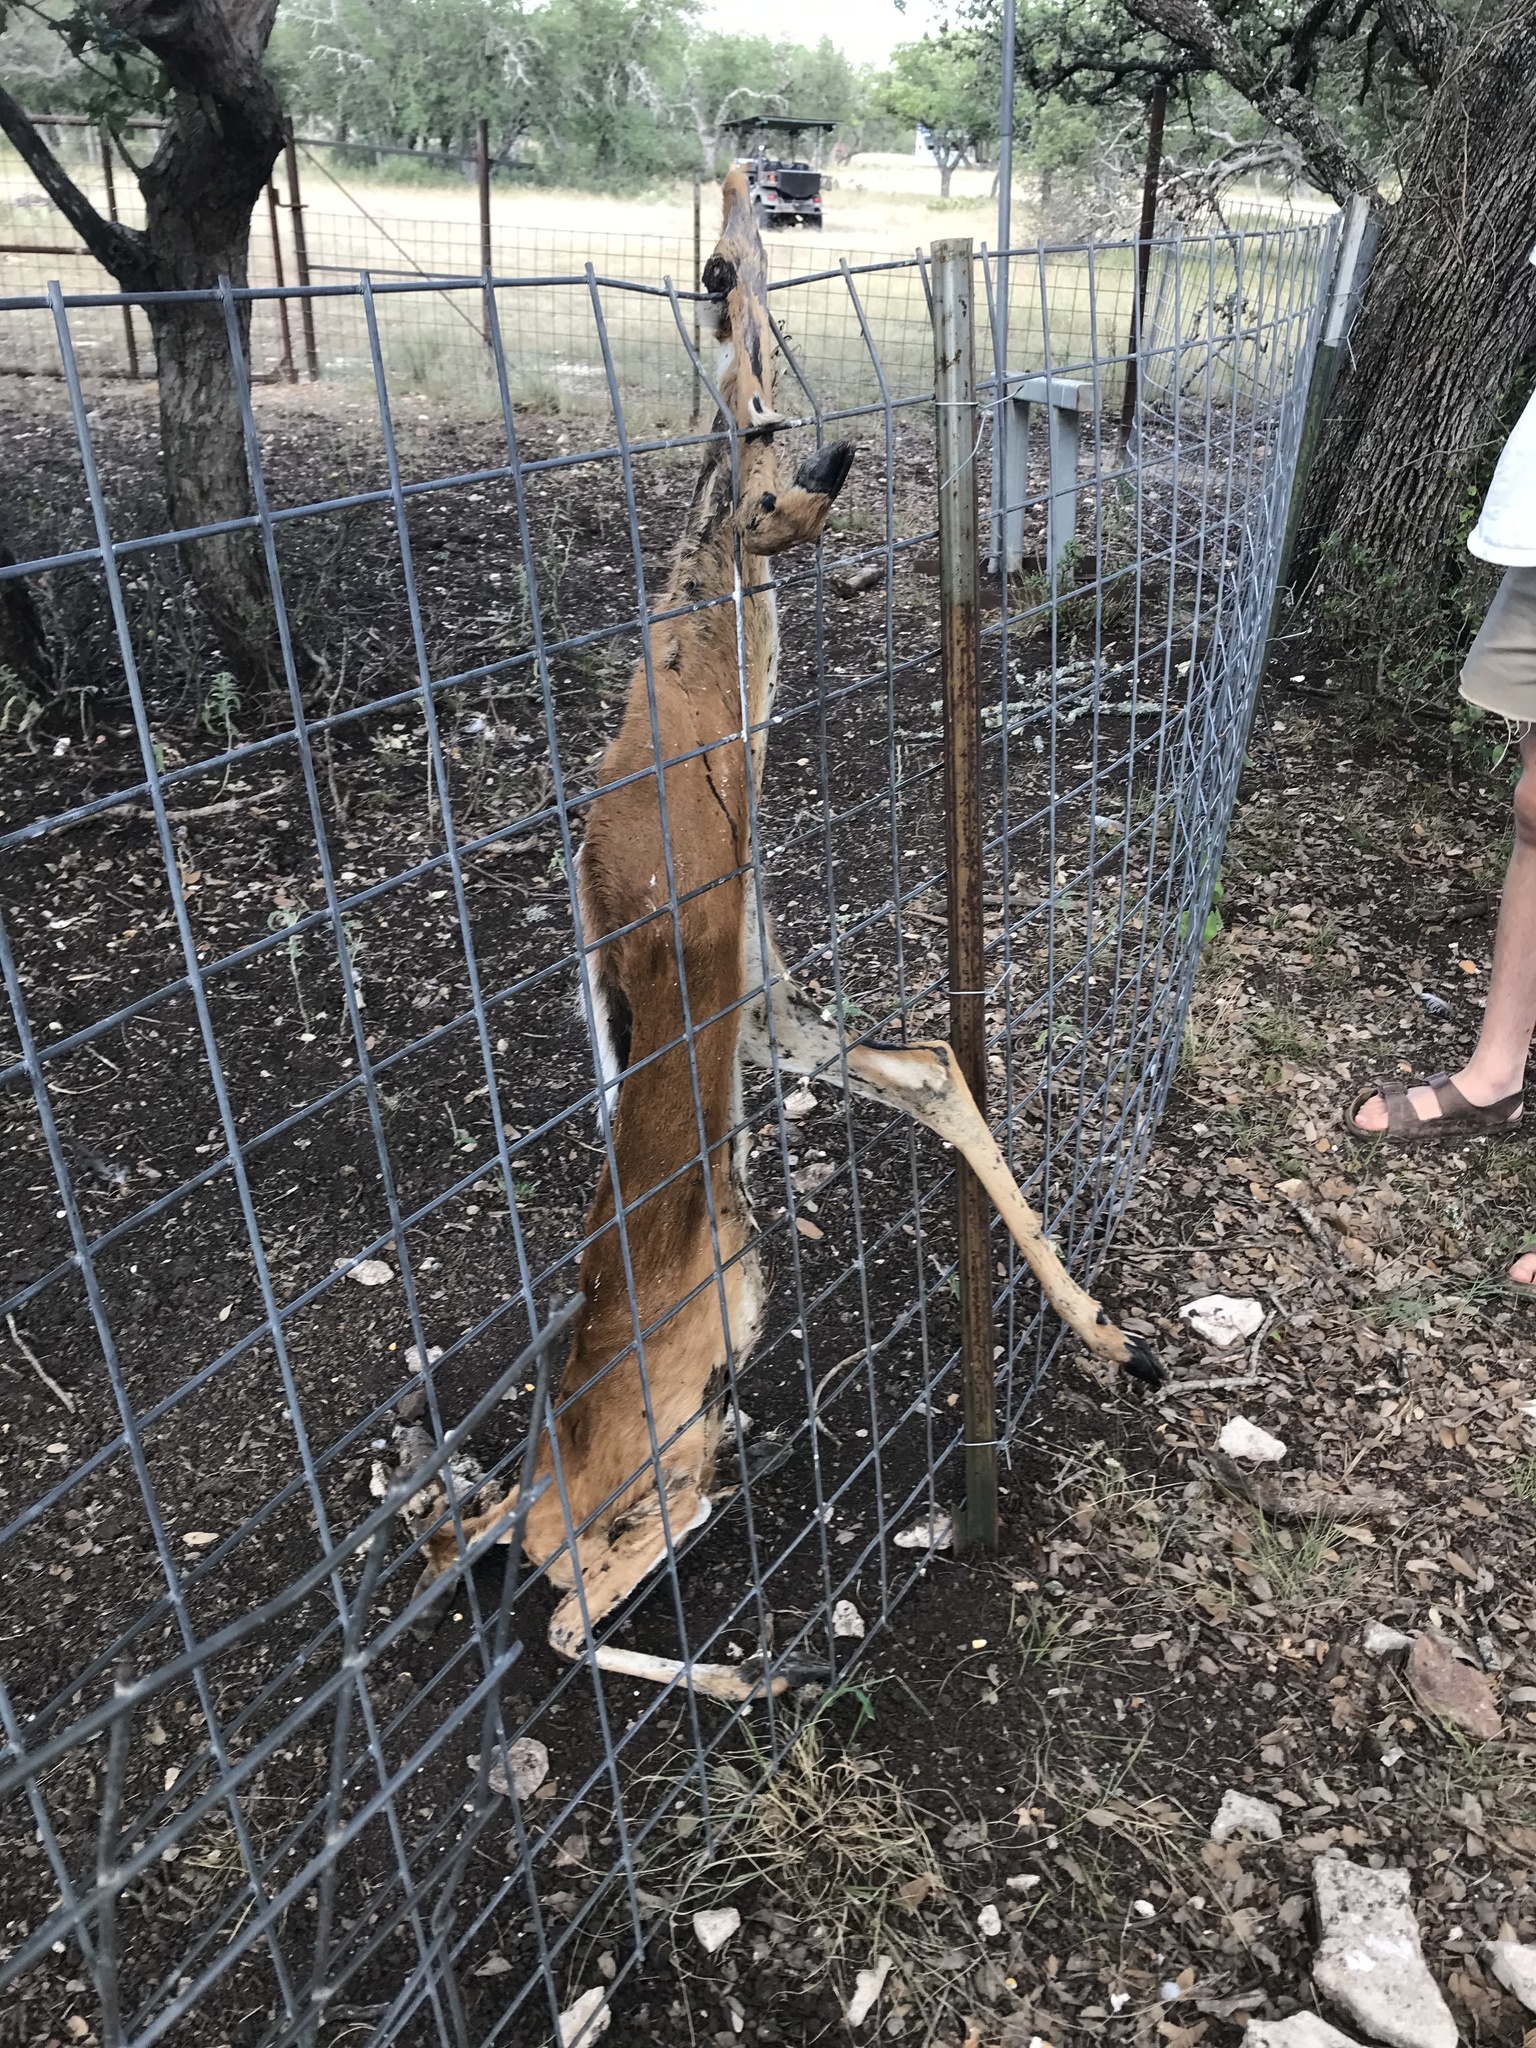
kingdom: Animalia
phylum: Chordata
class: Mammalia
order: Artiodactyla
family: Cervidae
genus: Odocoileus
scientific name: Odocoileus virginianus
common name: White-tailed deer
